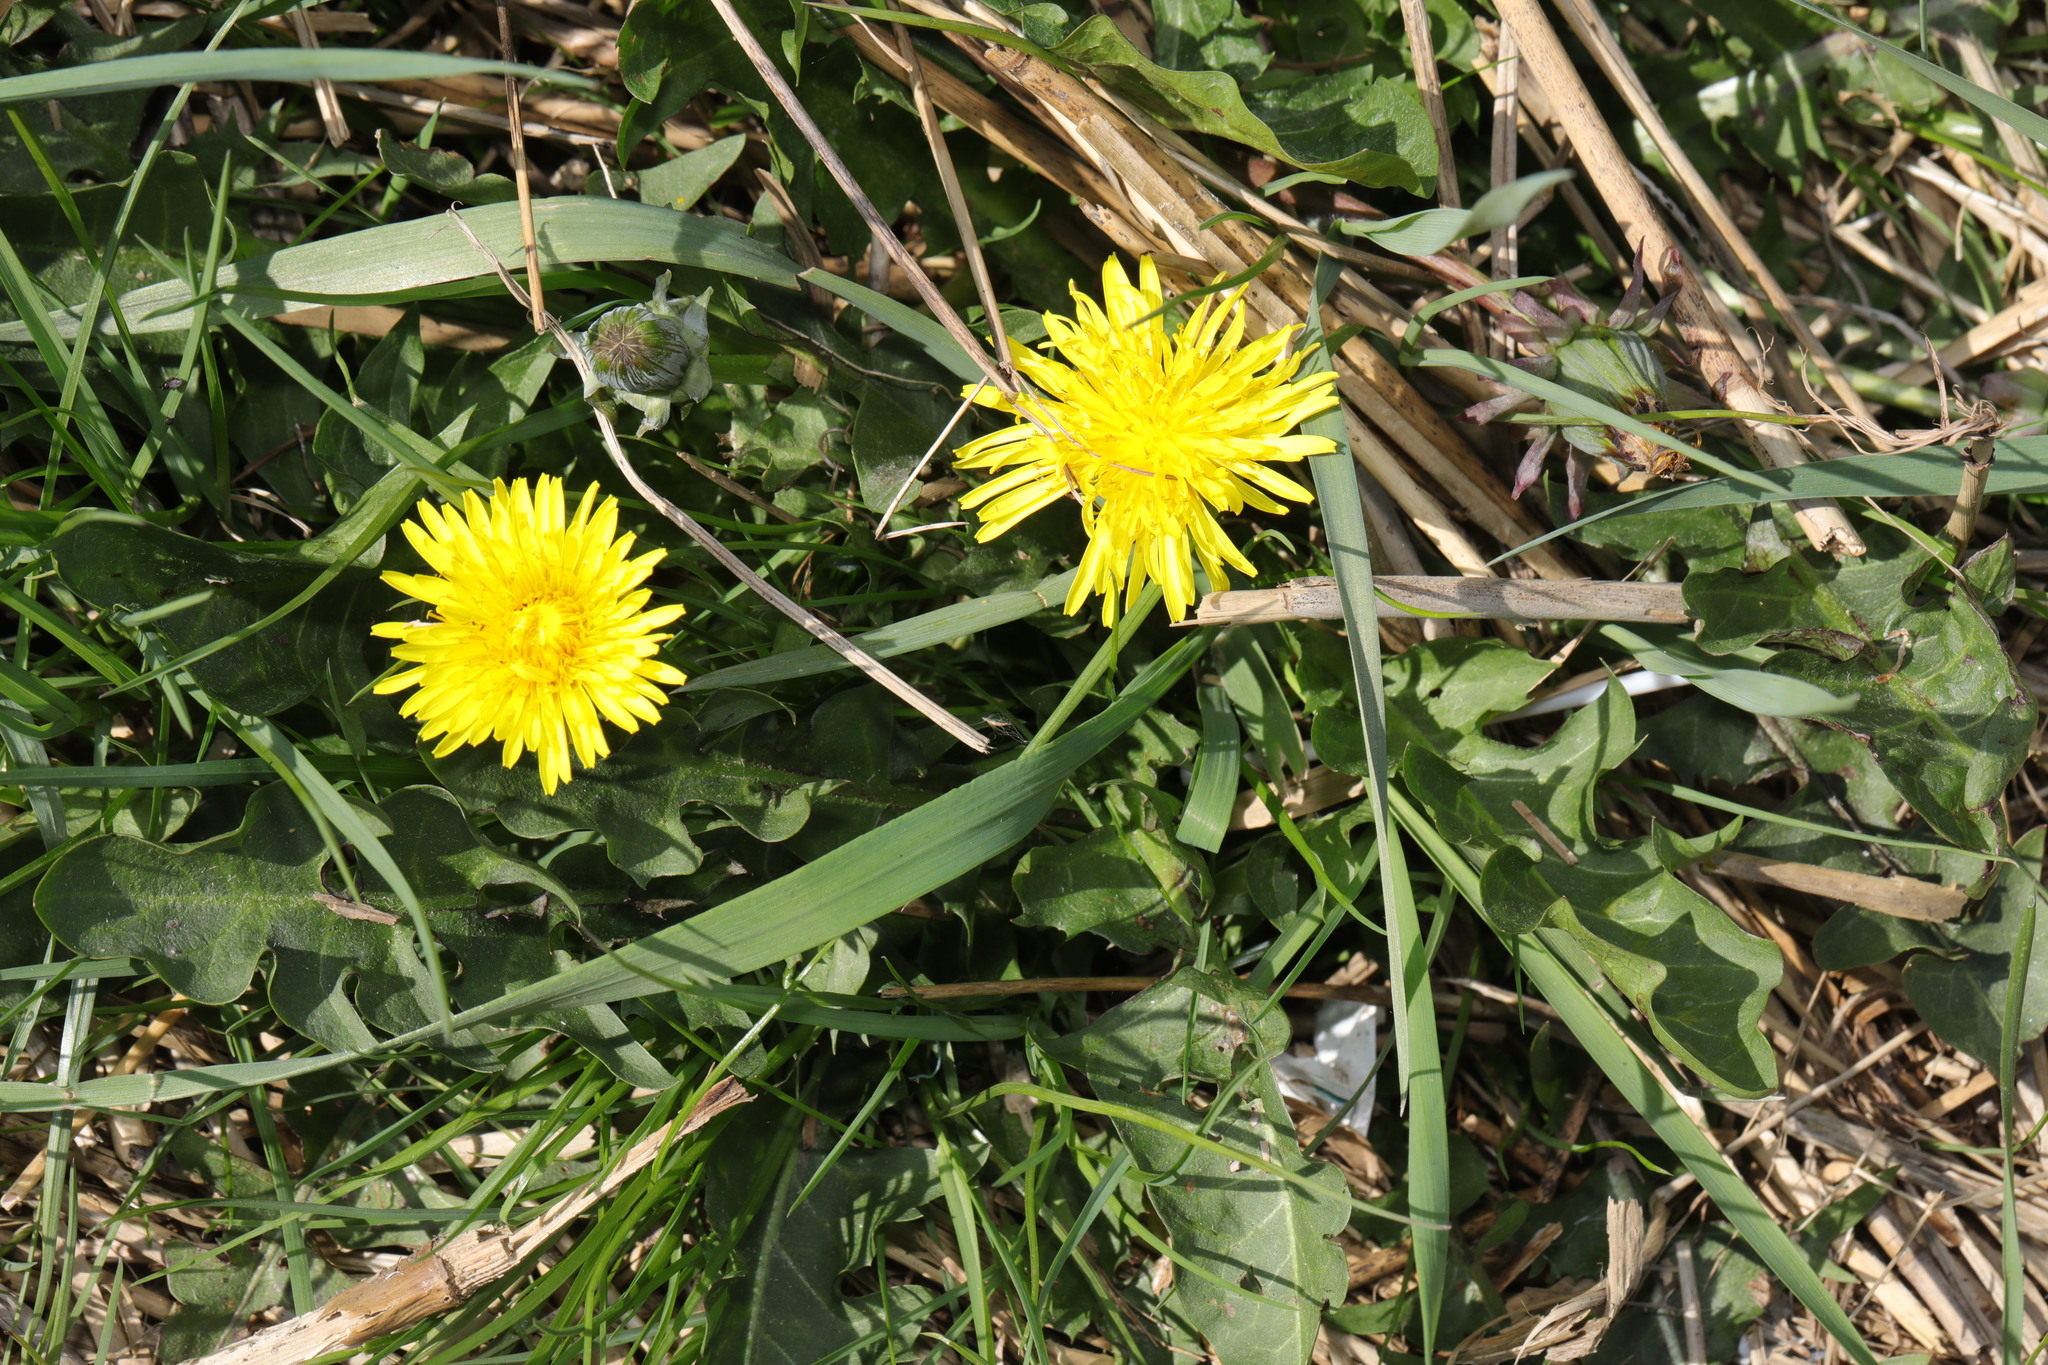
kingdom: Plantae
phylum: Tracheophyta
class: Magnoliopsida
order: Asterales
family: Asteraceae
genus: Taraxacum
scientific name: Taraxacum officinale
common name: Common dandelion
